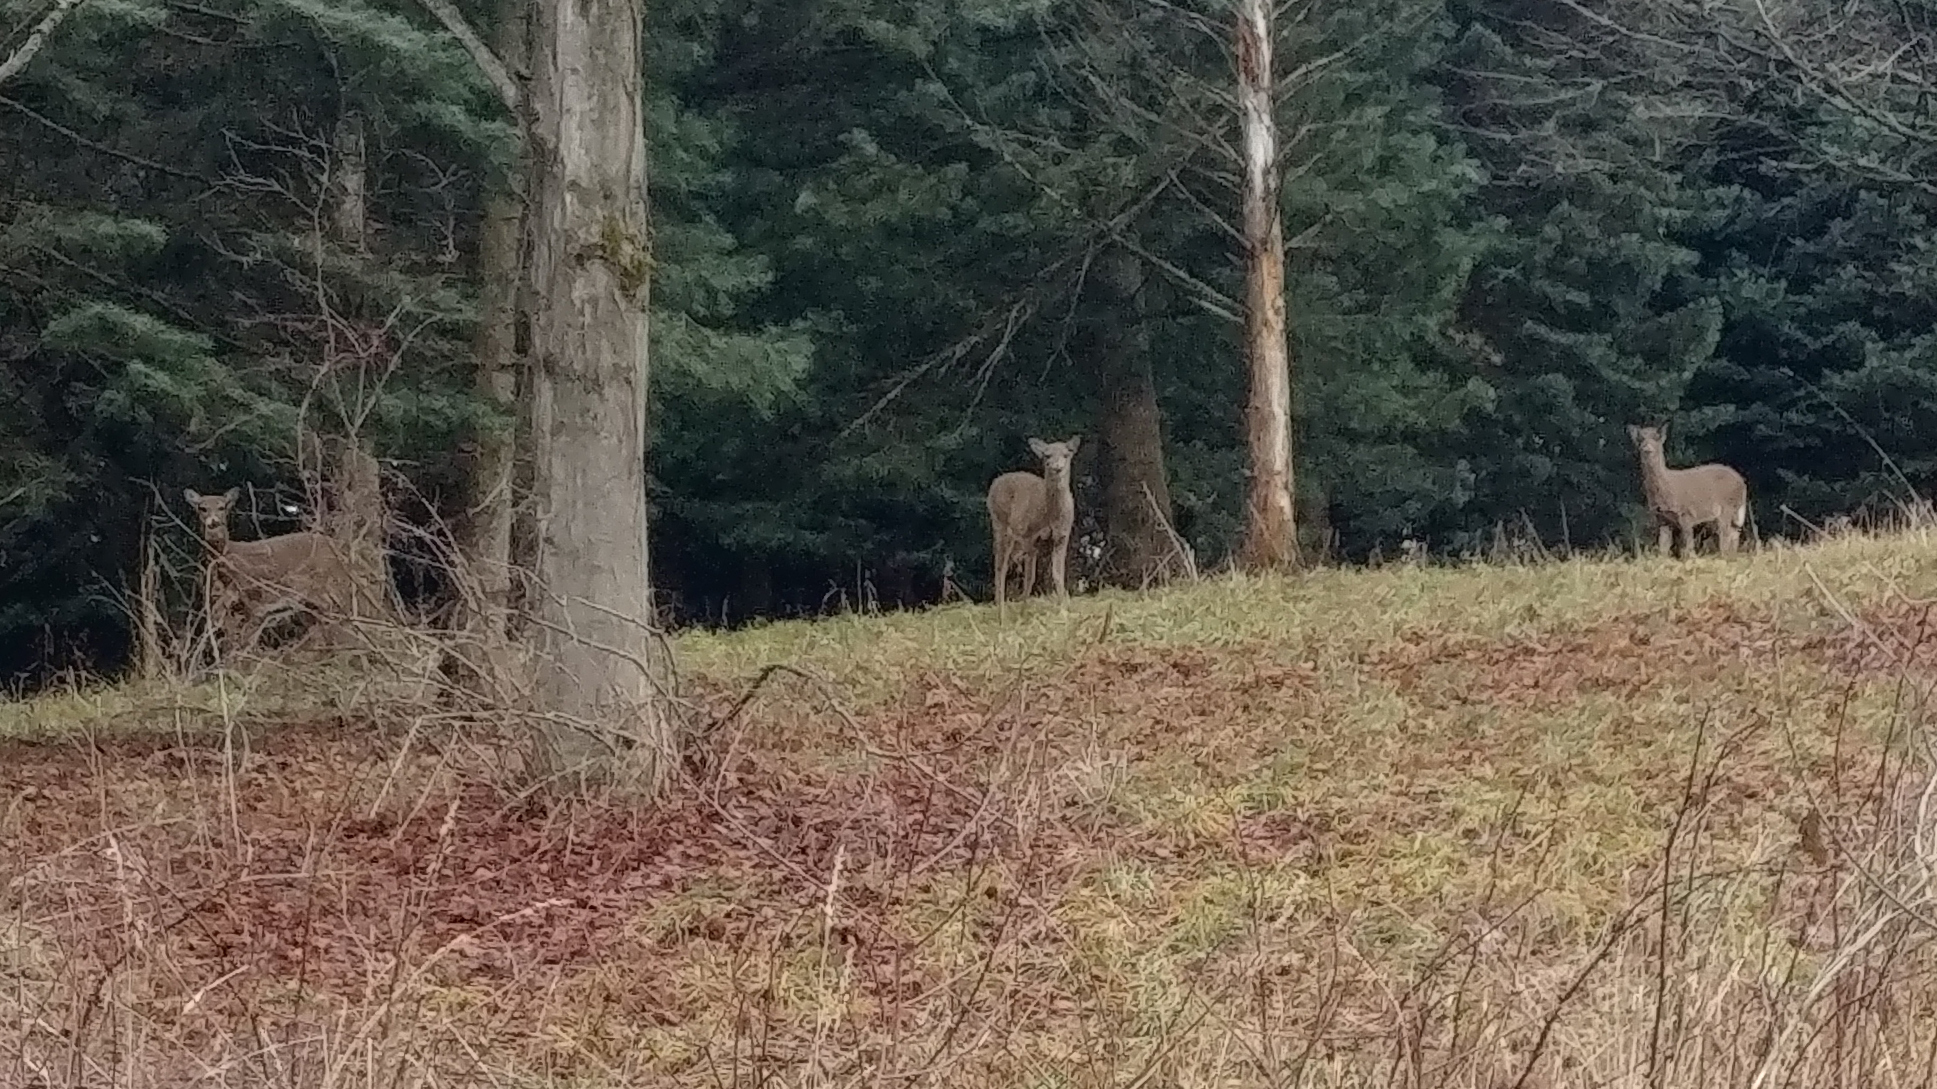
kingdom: Animalia
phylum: Chordata
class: Mammalia
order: Artiodactyla
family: Cervidae
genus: Odocoileus
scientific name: Odocoileus virginianus
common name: White-tailed deer
